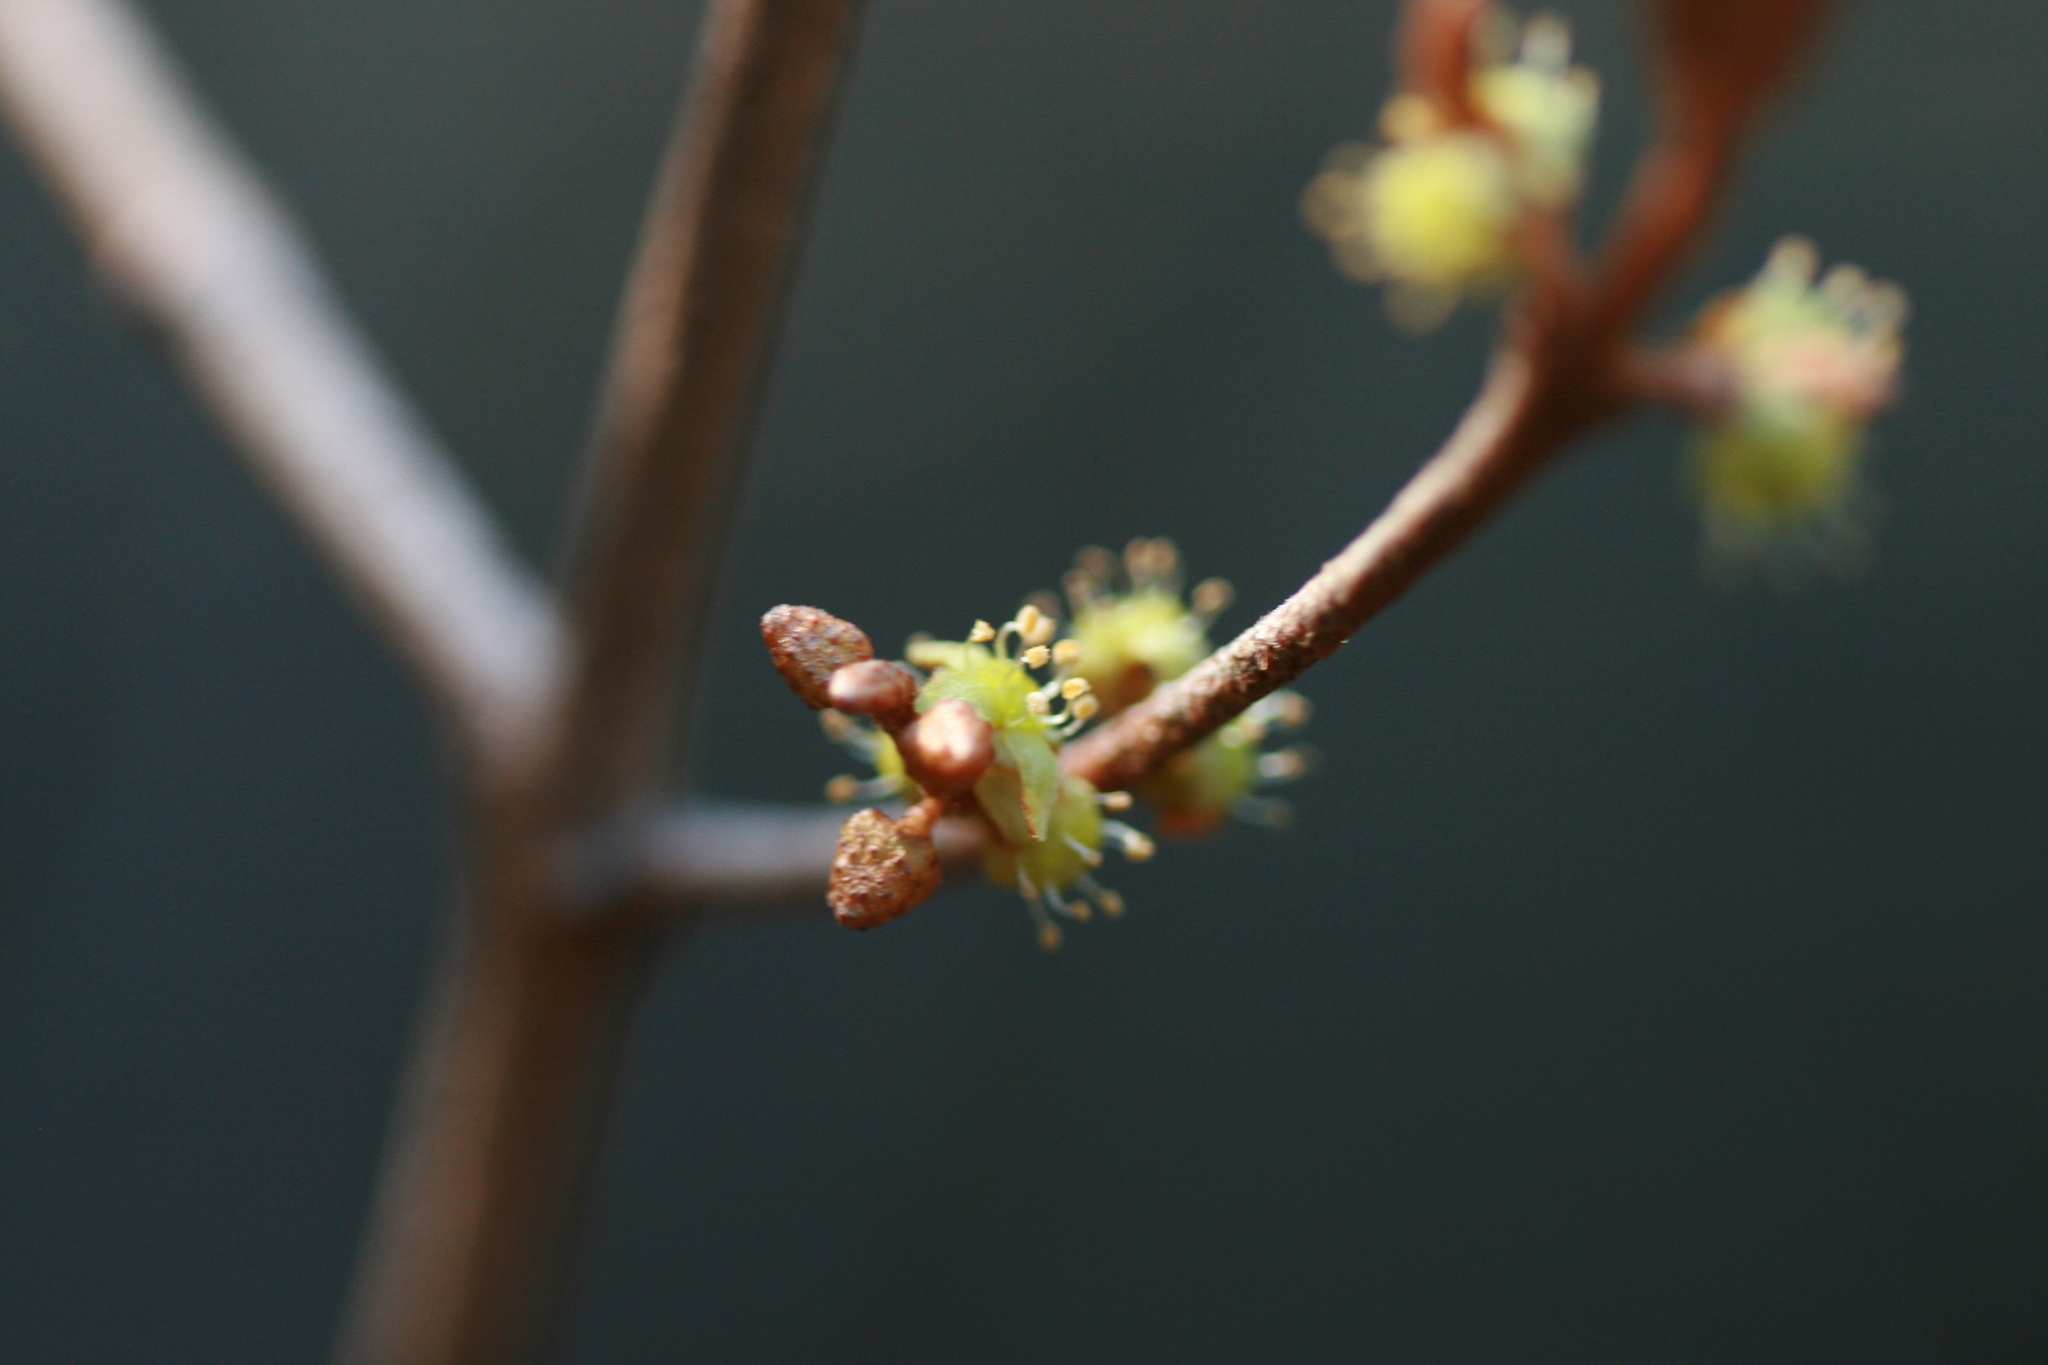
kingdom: Plantae
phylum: Tracheophyta
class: Magnoliopsida
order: Rosales
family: Elaeagnaceae
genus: Shepherdia
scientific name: Shepherdia canadensis
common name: Soapberry
